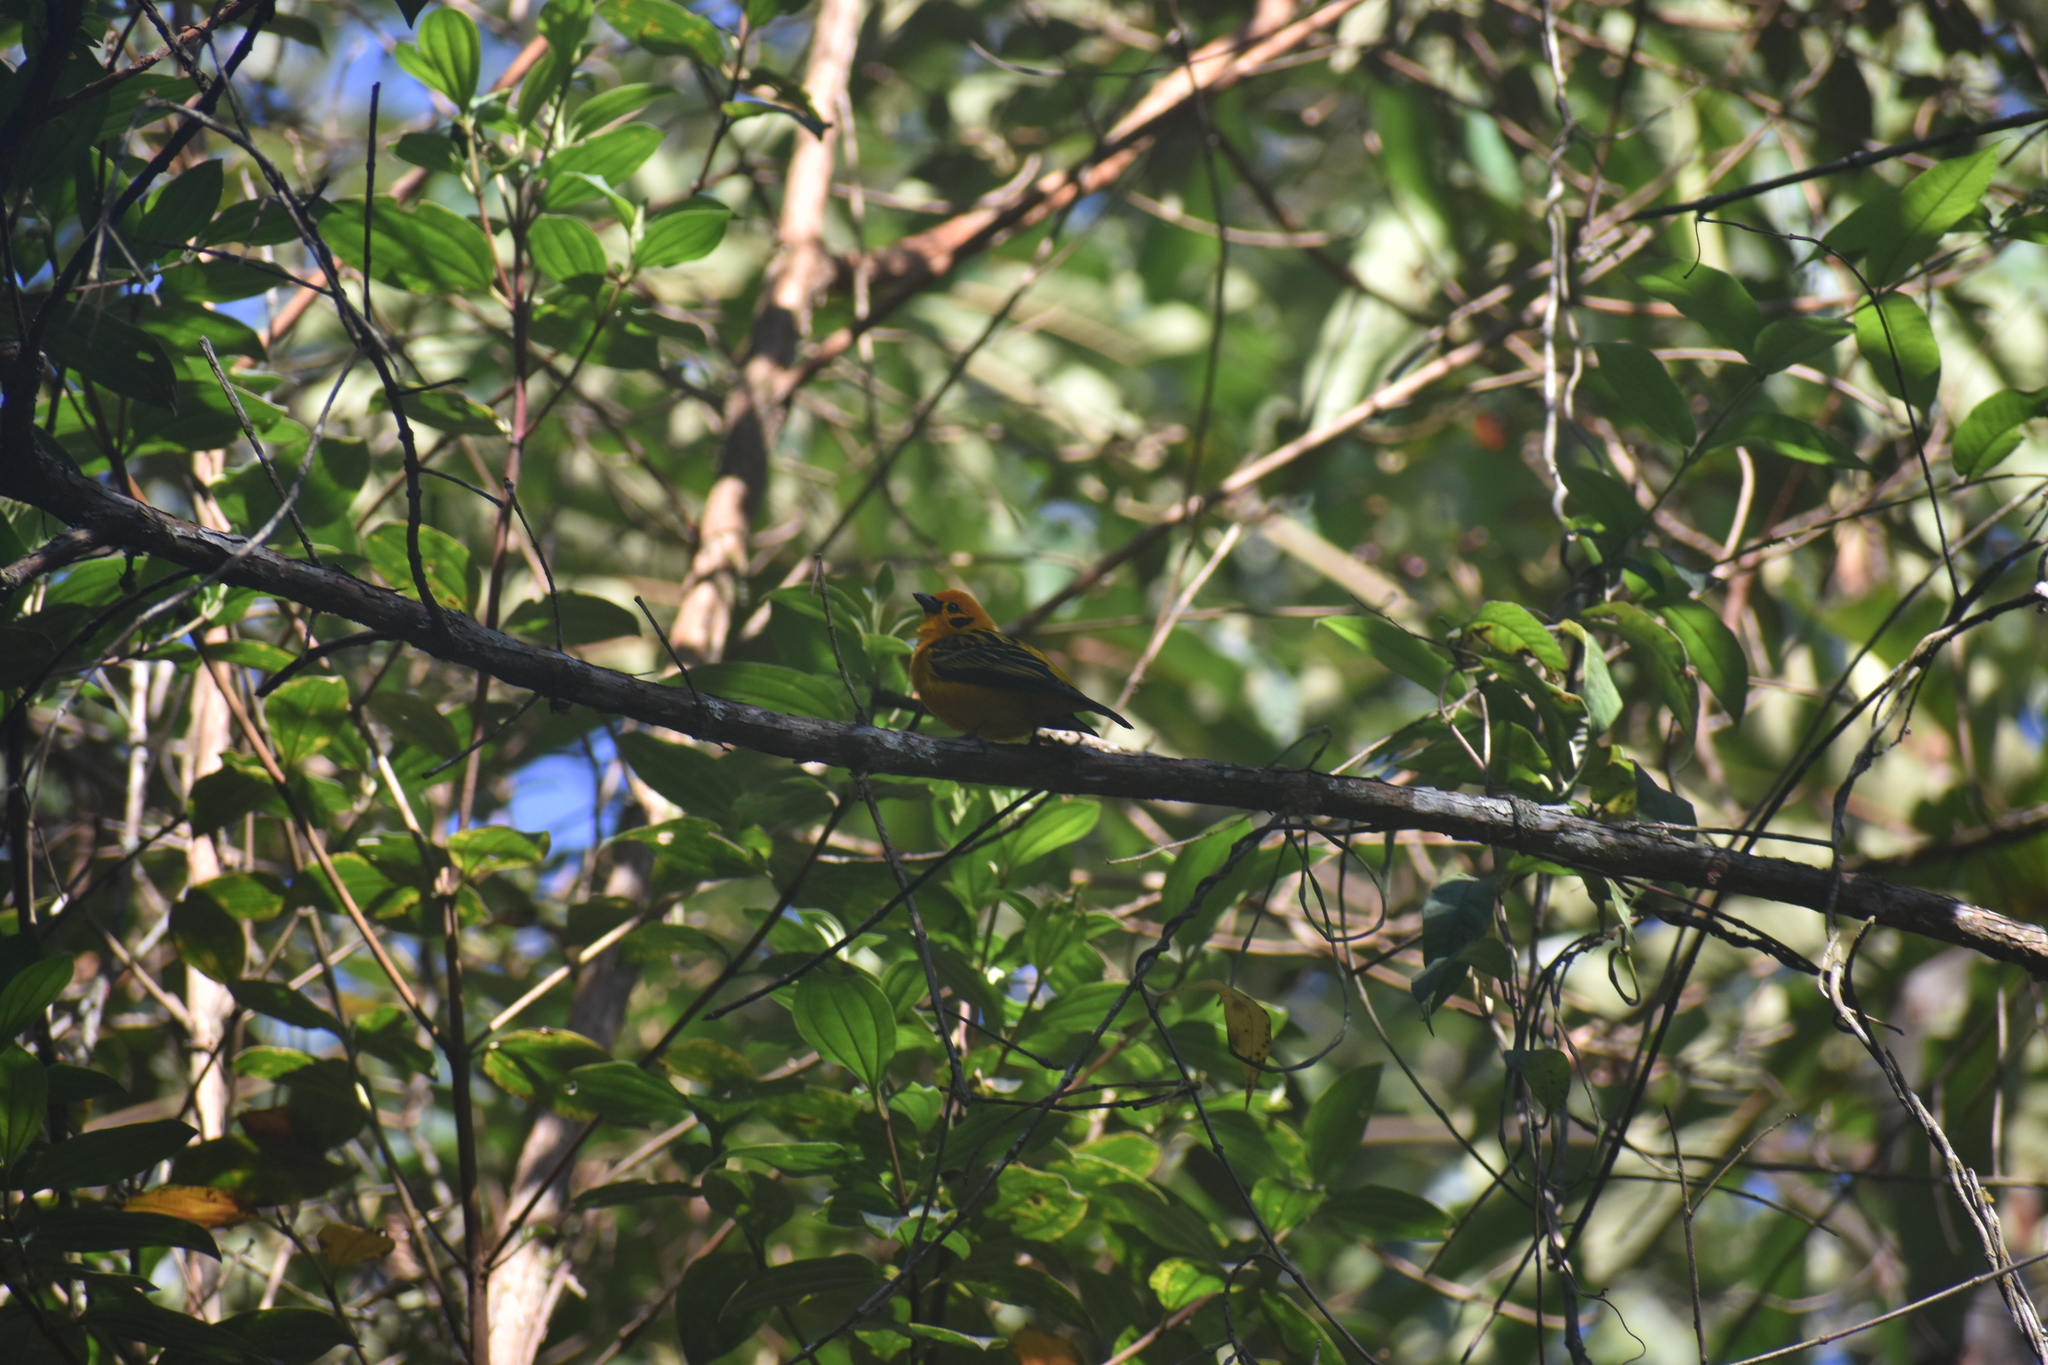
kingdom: Animalia
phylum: Chordata
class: Aves
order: Passeriformes
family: Thraupidae
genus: Tangara
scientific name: Tangara arthus
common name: Golden tanager
